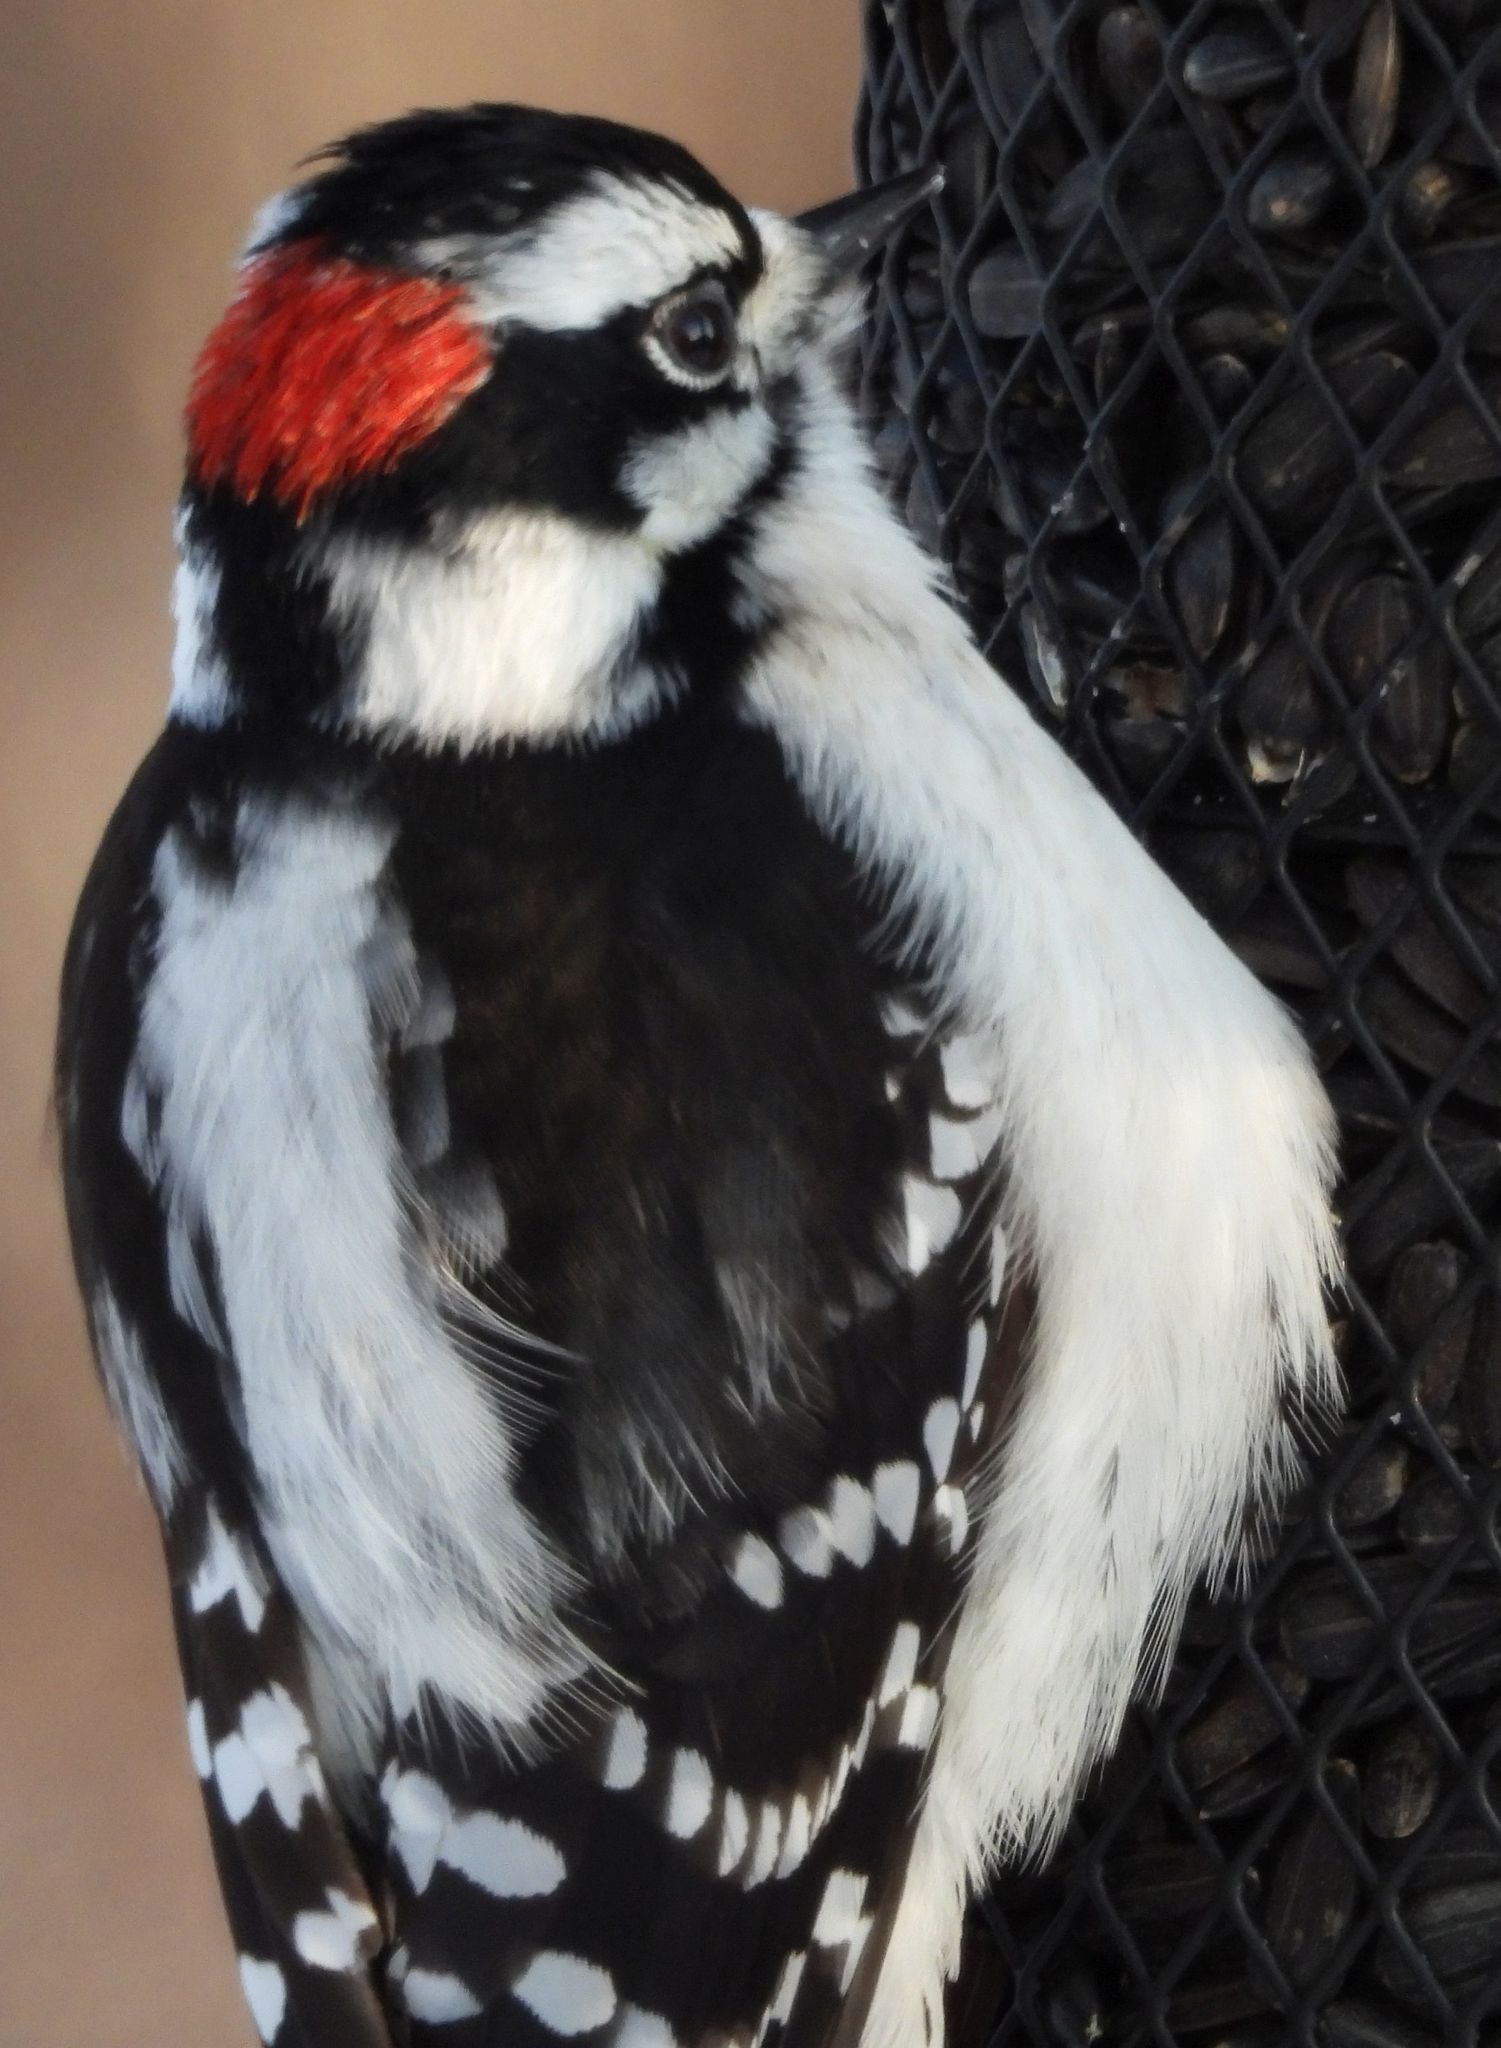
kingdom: Animalia
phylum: Chordata
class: Aves
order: Piciformes
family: Picidae
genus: Dryobates
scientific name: Dryobates pubescens
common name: Downy woodpecker
